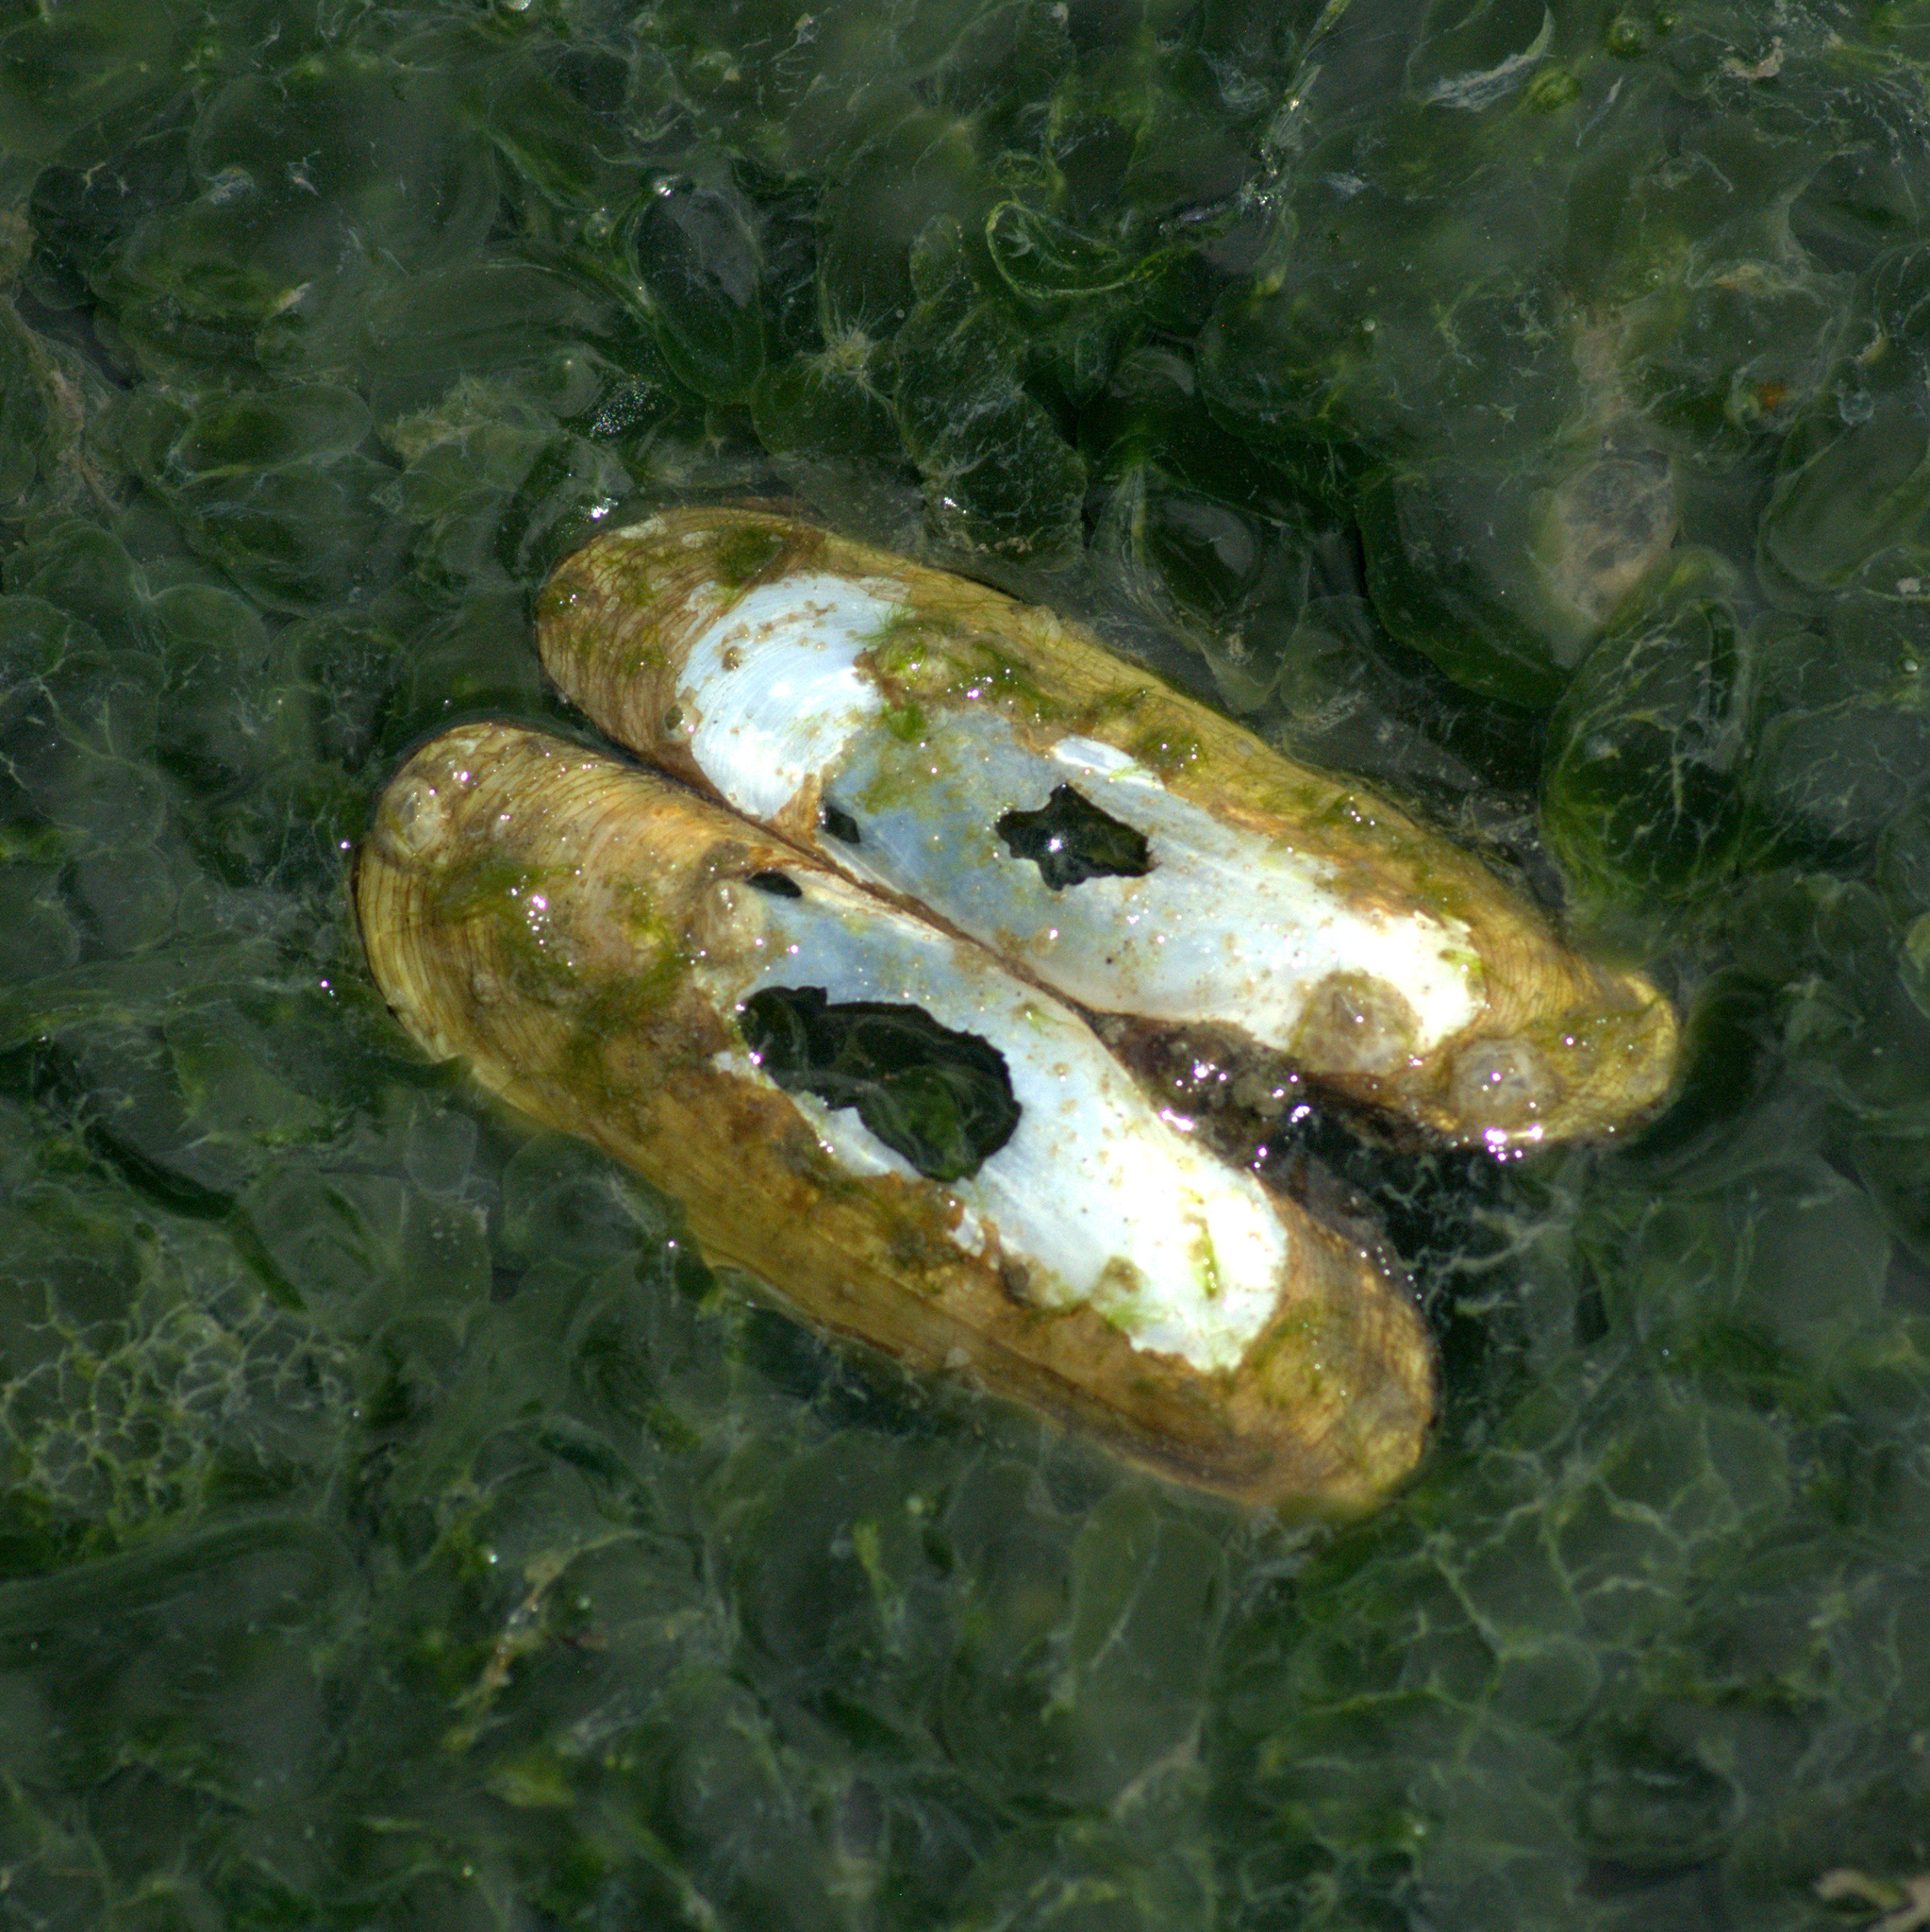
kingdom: Animalia
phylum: Mollusca
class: Bivalvia
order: Cardiida
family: Solecurtidae
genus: Tagelus
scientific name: Tagelus plebeius
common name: Stout tagelus
